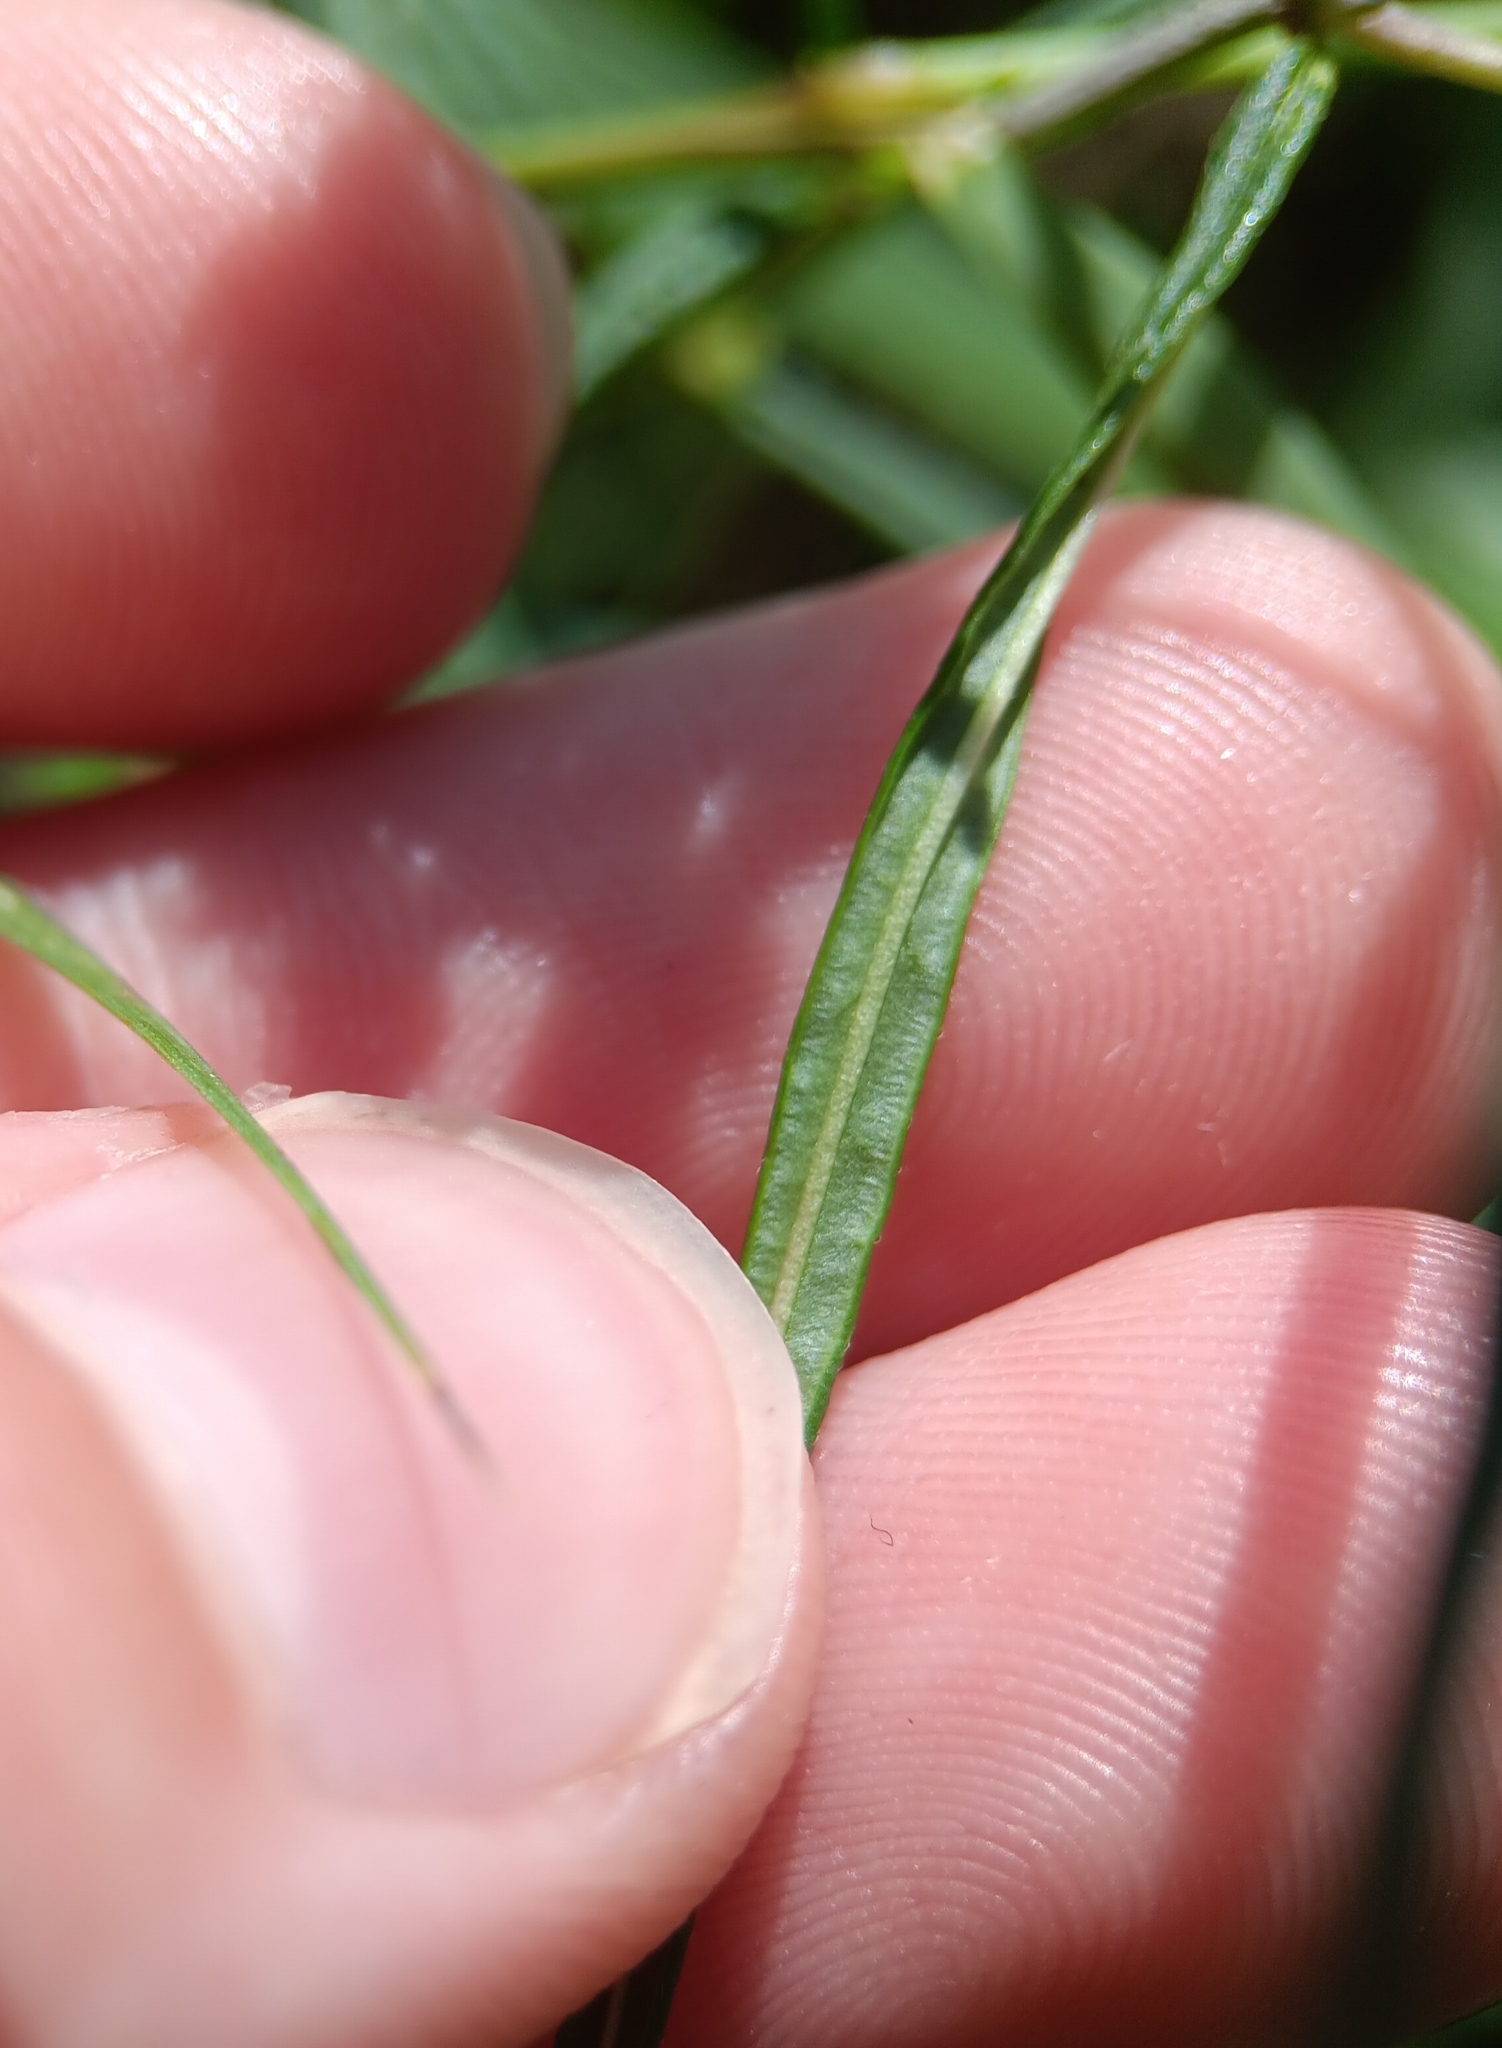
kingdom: Plantae
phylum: Tracheophyta
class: Magnoliopsida
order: Gentianales
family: Apocynaceae
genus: Asclepias
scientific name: Asclepias verticillata
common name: Eastern whorled milkweed
